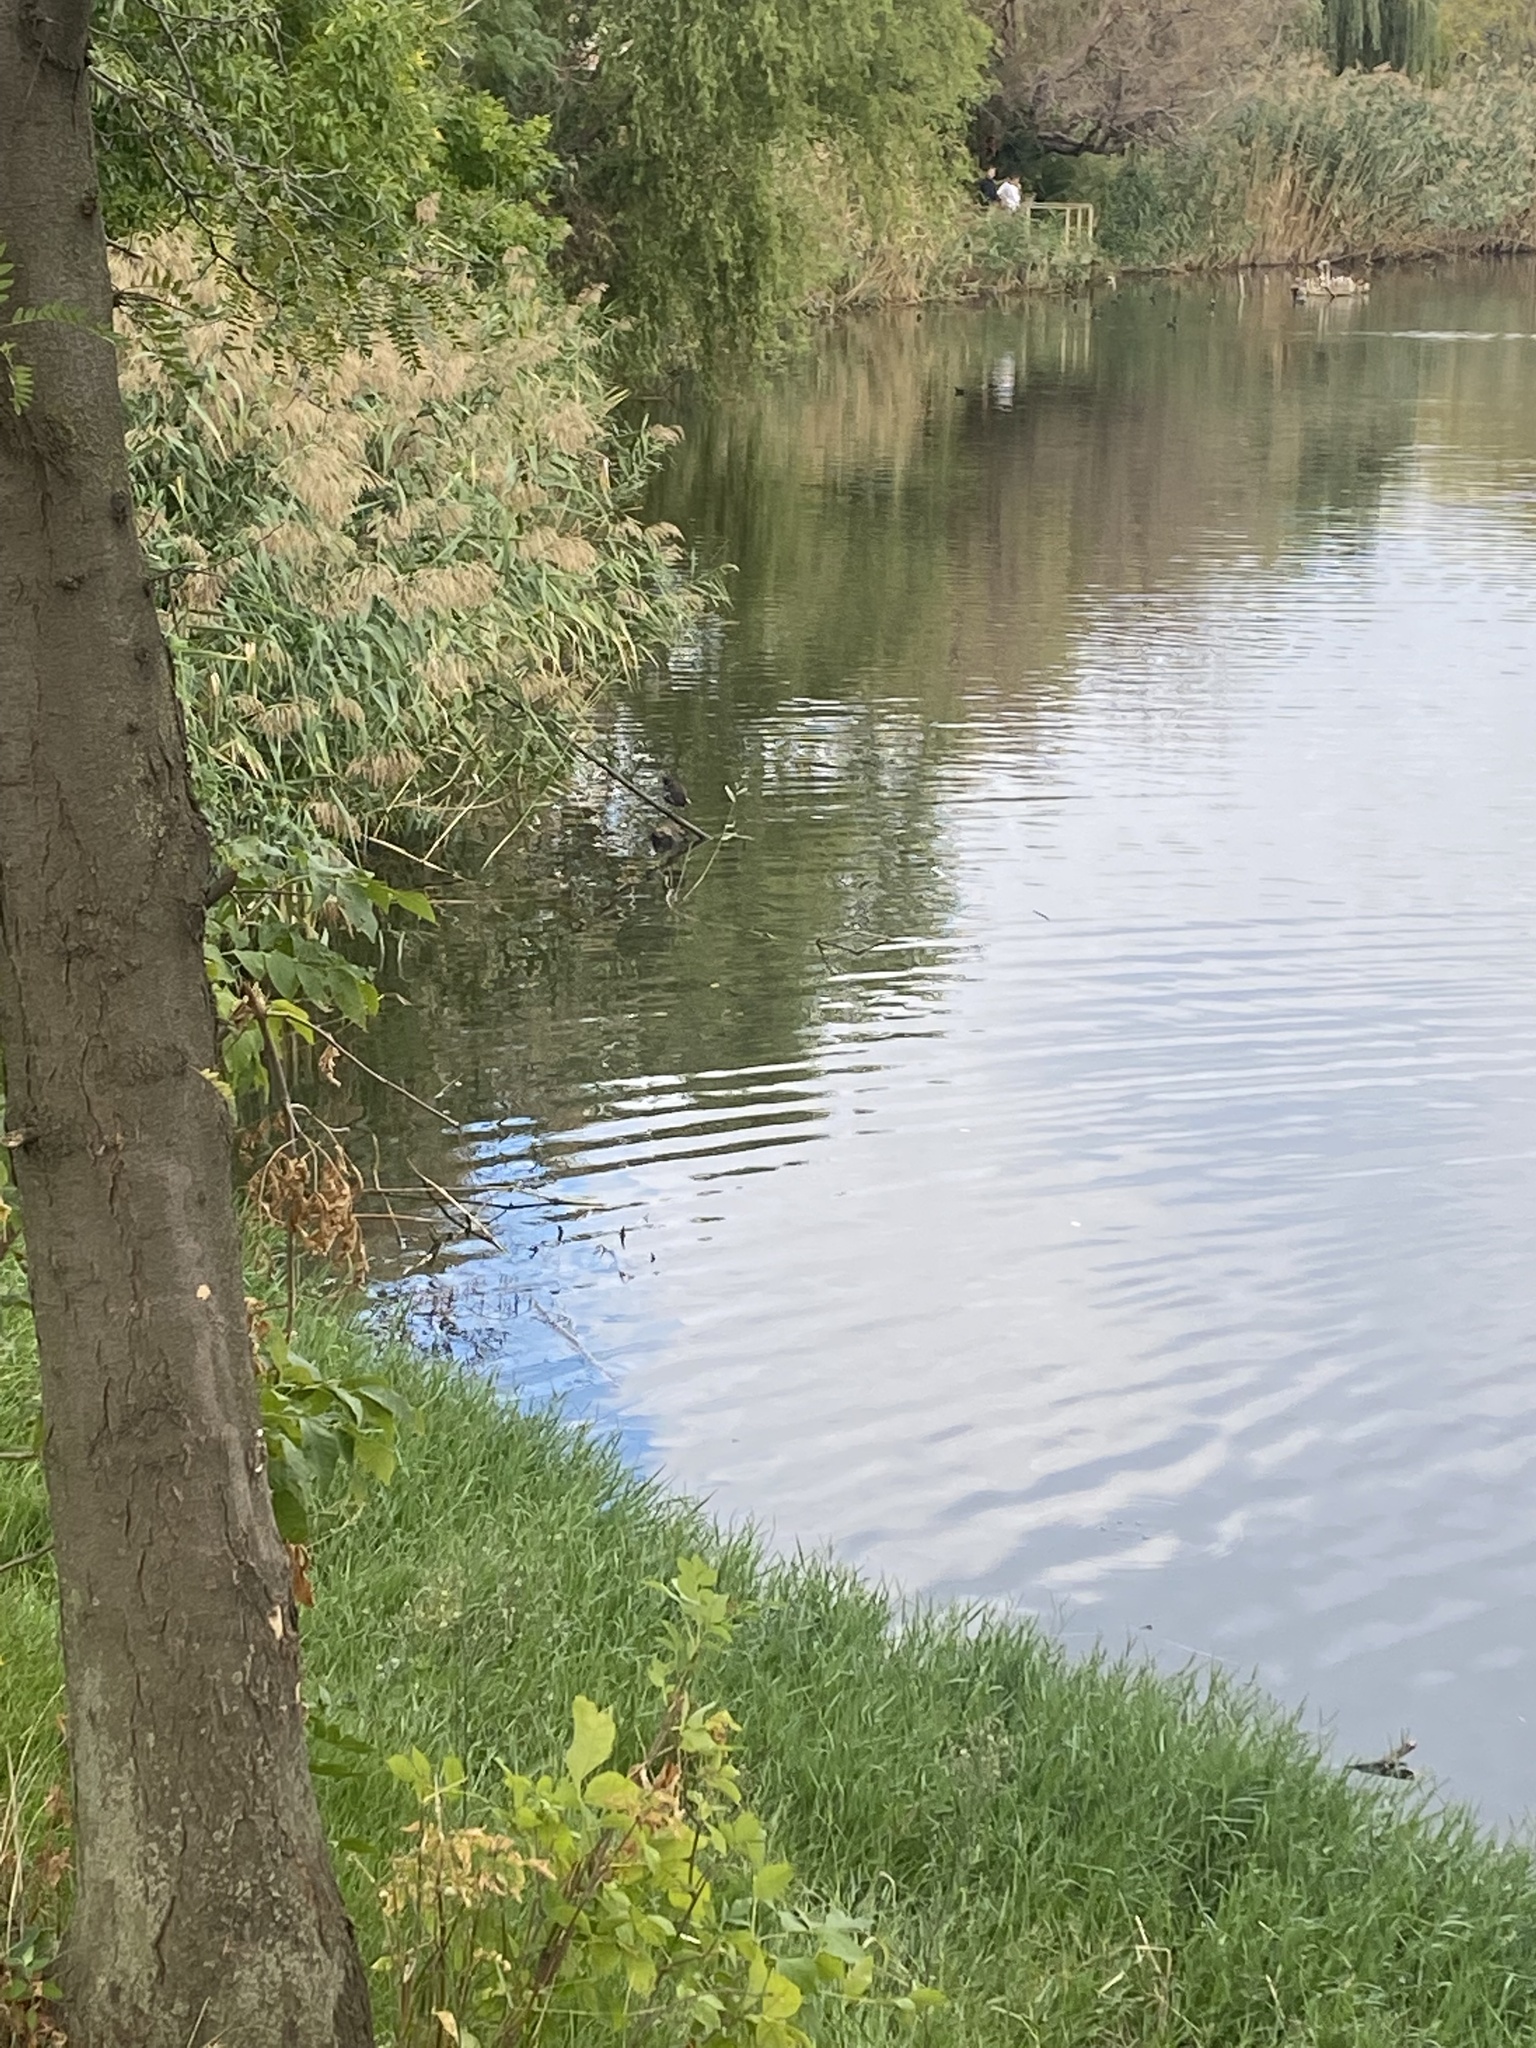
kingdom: Animalia
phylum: Chordata
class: Aves
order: Gruiformes
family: Rallidae
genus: Gallinula
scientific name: Gallinula chloropus
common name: Common moorhen
